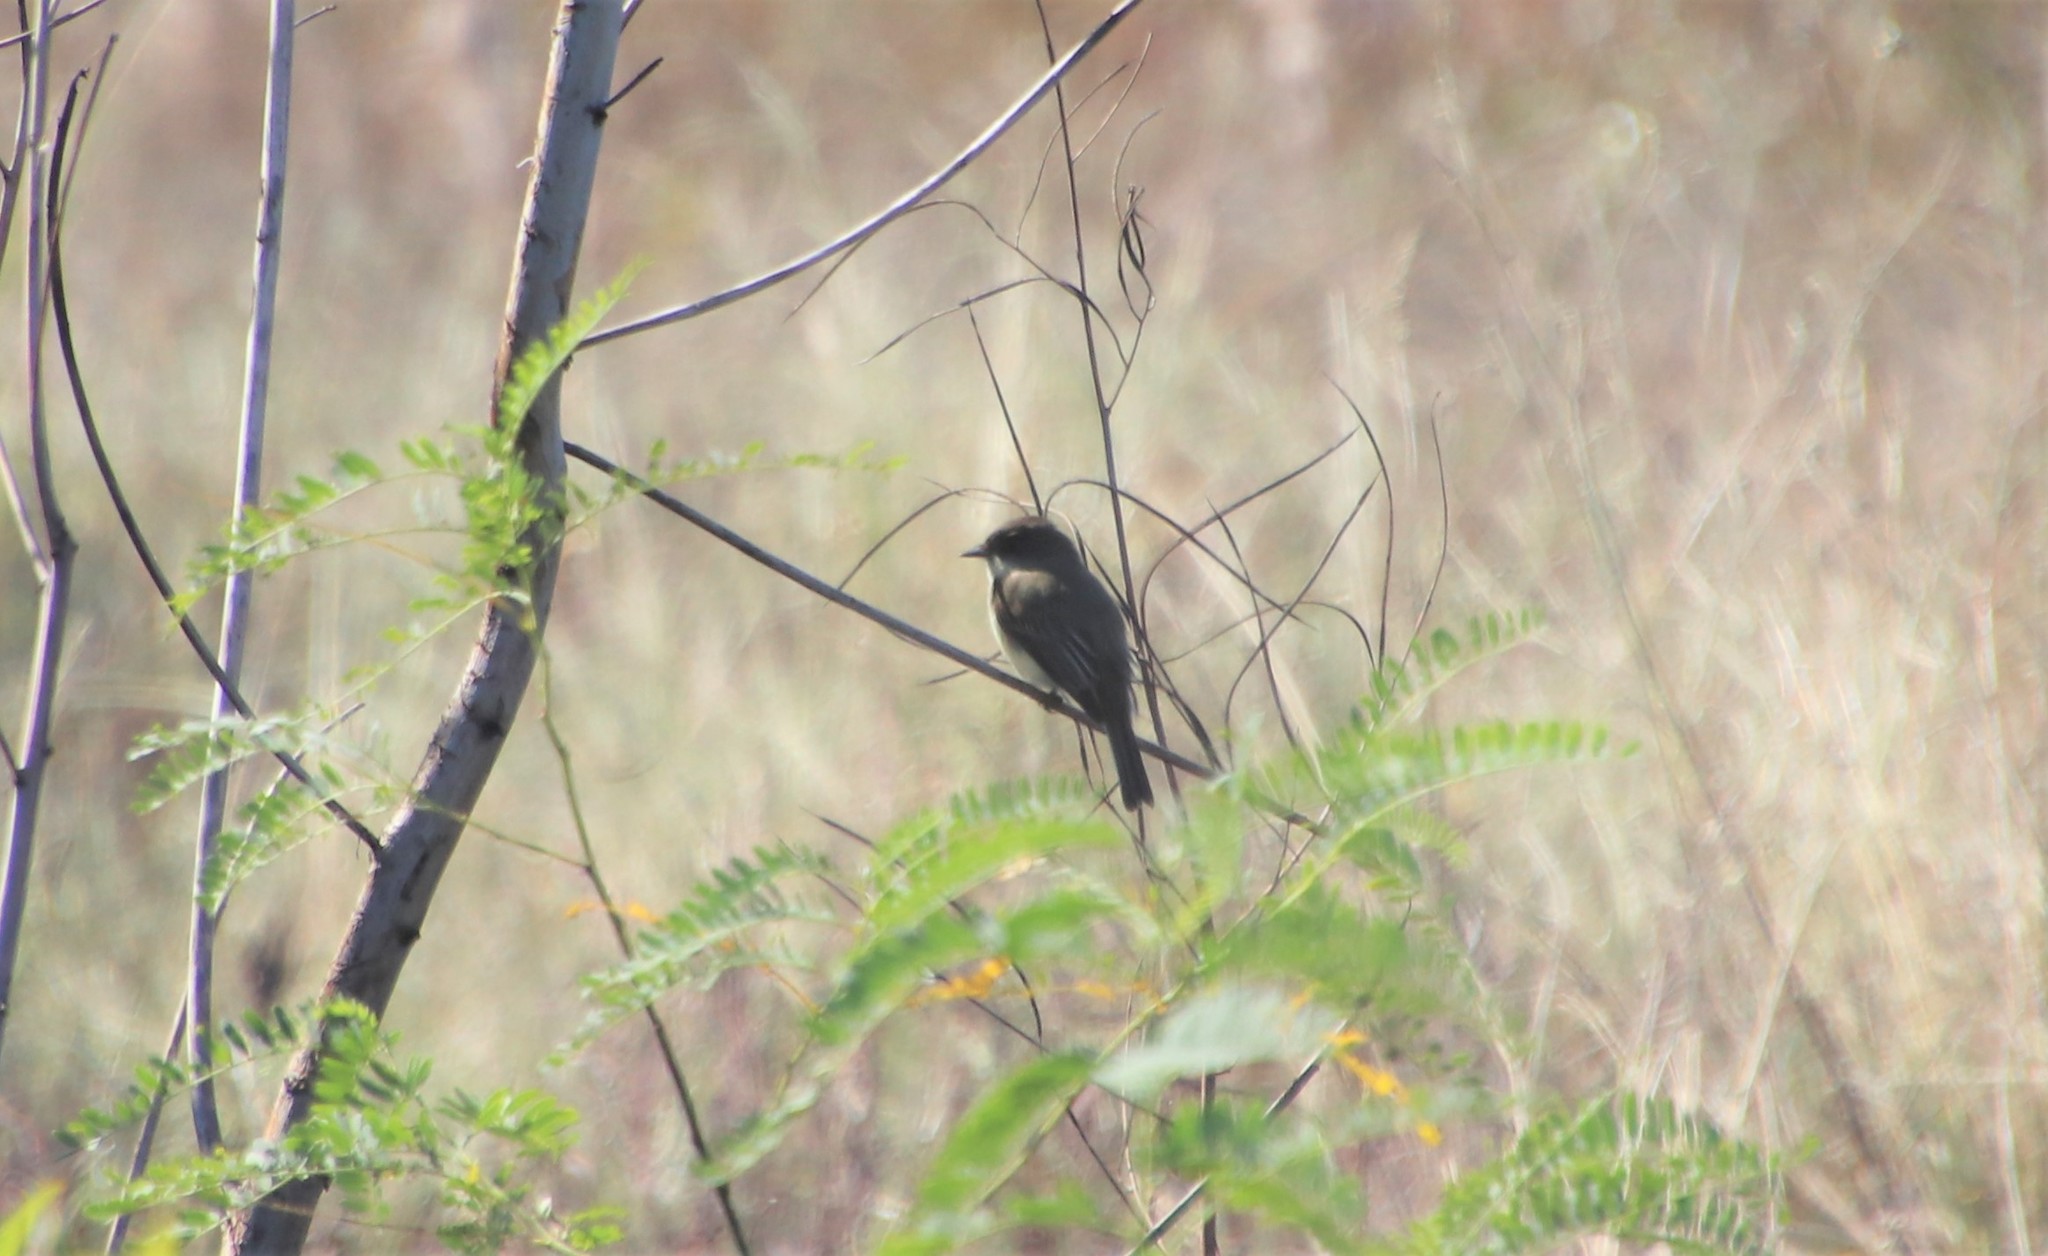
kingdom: Animalia
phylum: Chordata
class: Aves
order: Passeriformes
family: Tyrannidae
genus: Sayornis
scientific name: Sayornis phoebe
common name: Eastern phoebe
